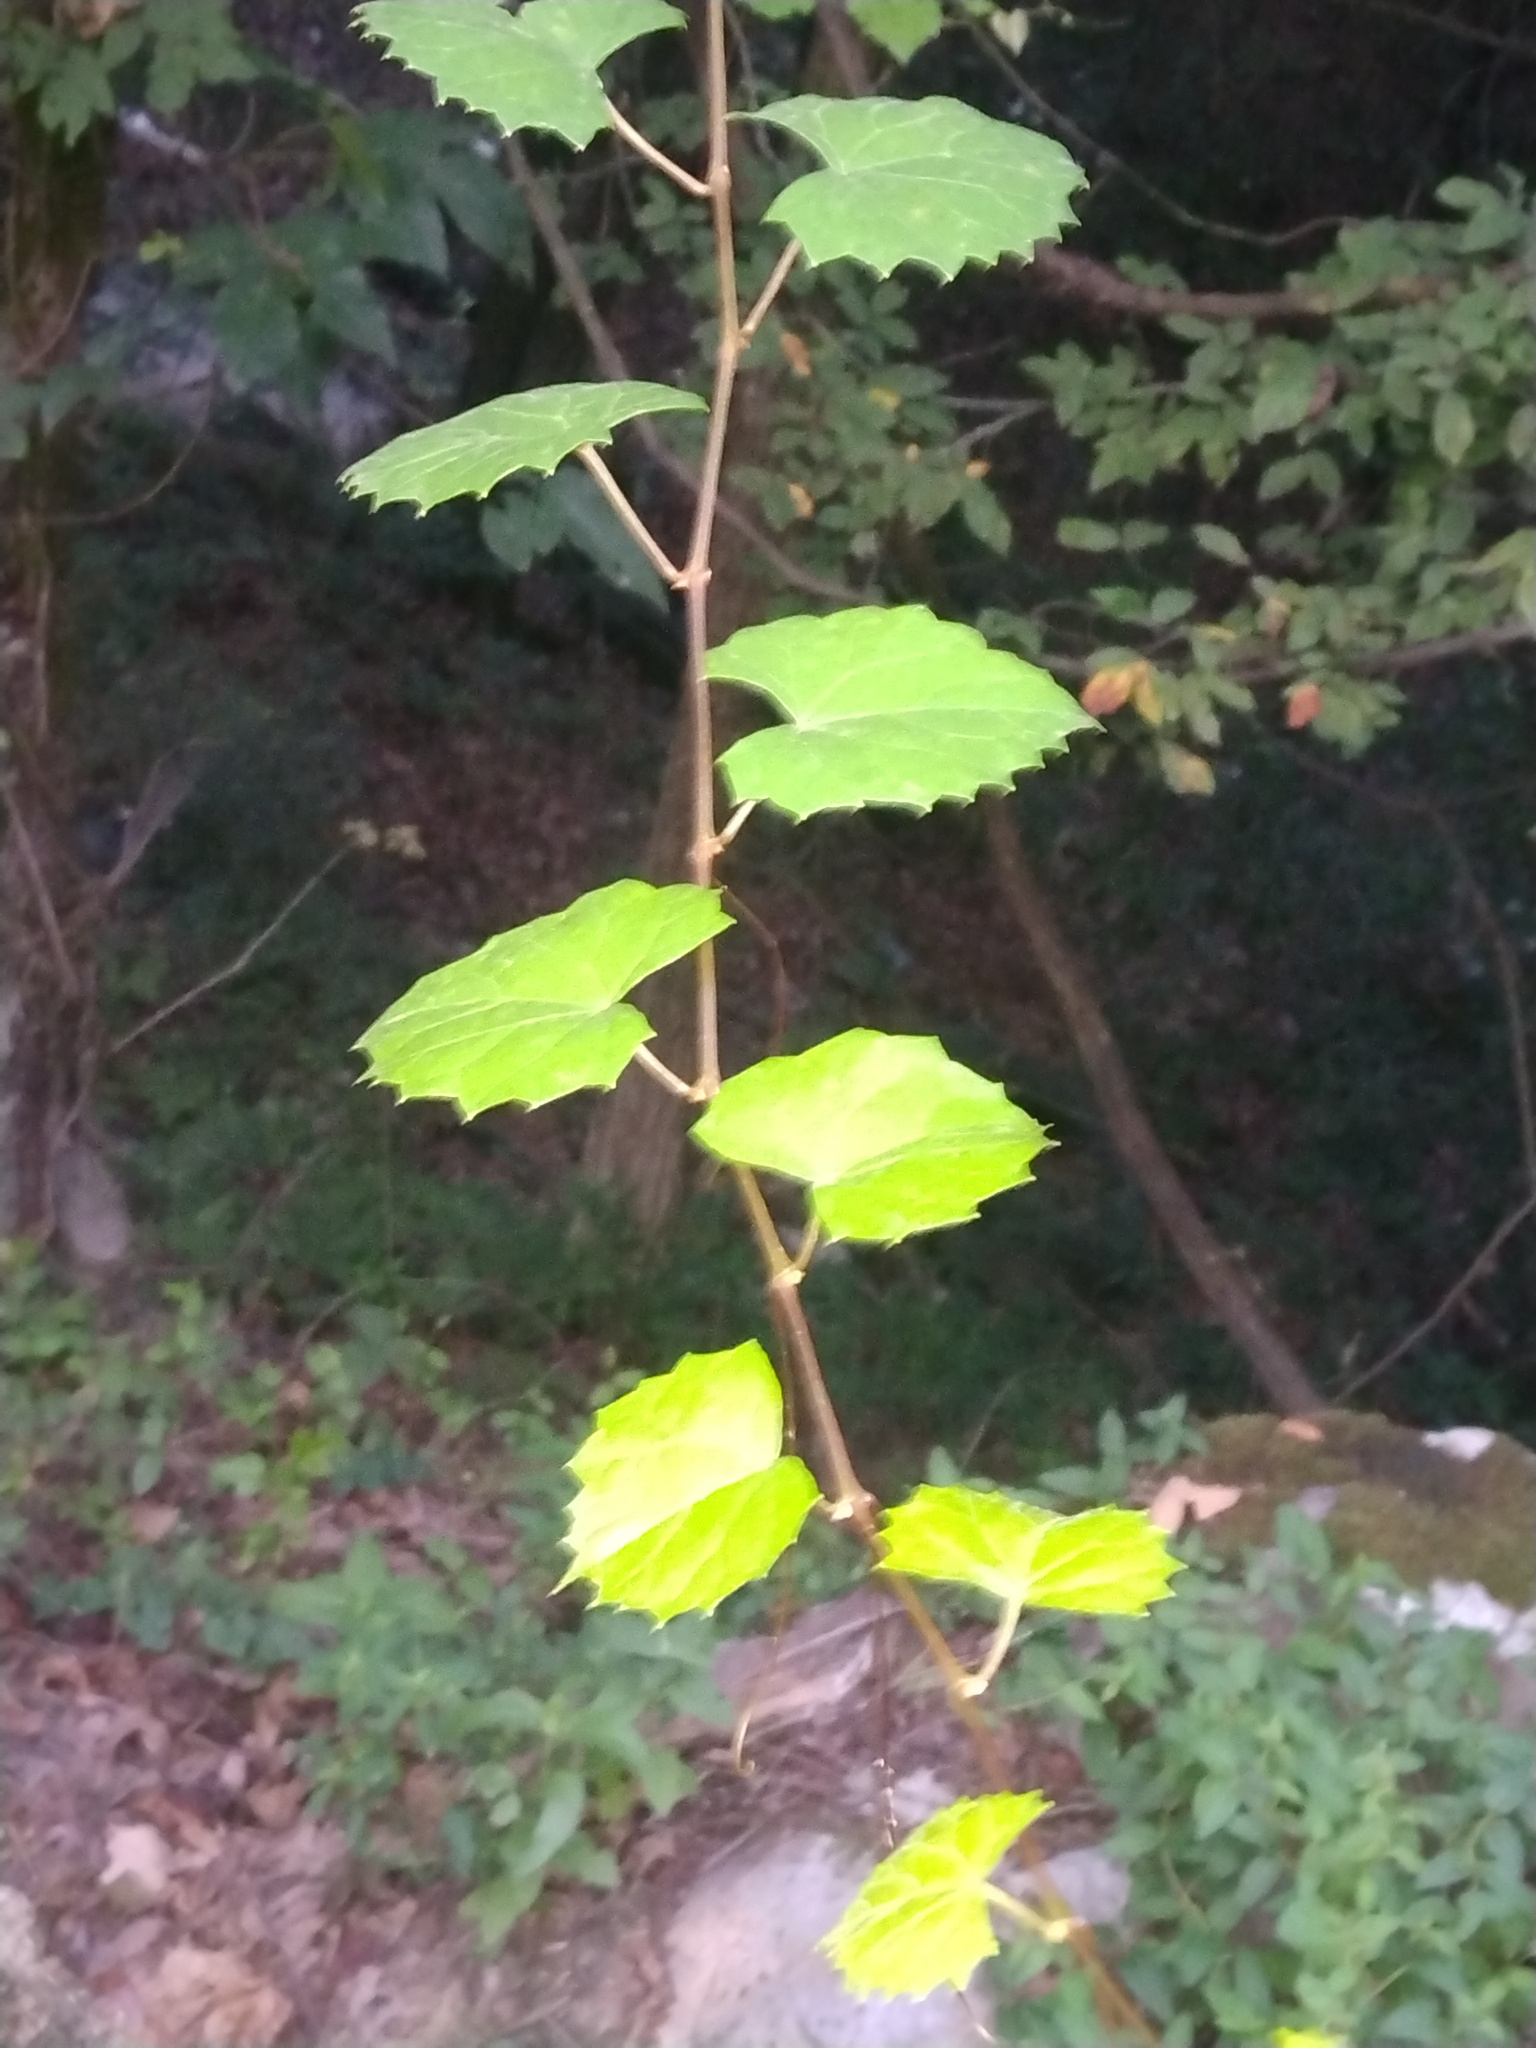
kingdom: Plantae
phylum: Tracheophyta
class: Magnoliopsida
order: Vitales
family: Vitaceae
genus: Vitis
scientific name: Vitis rotundifolia
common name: Muscadine grape
